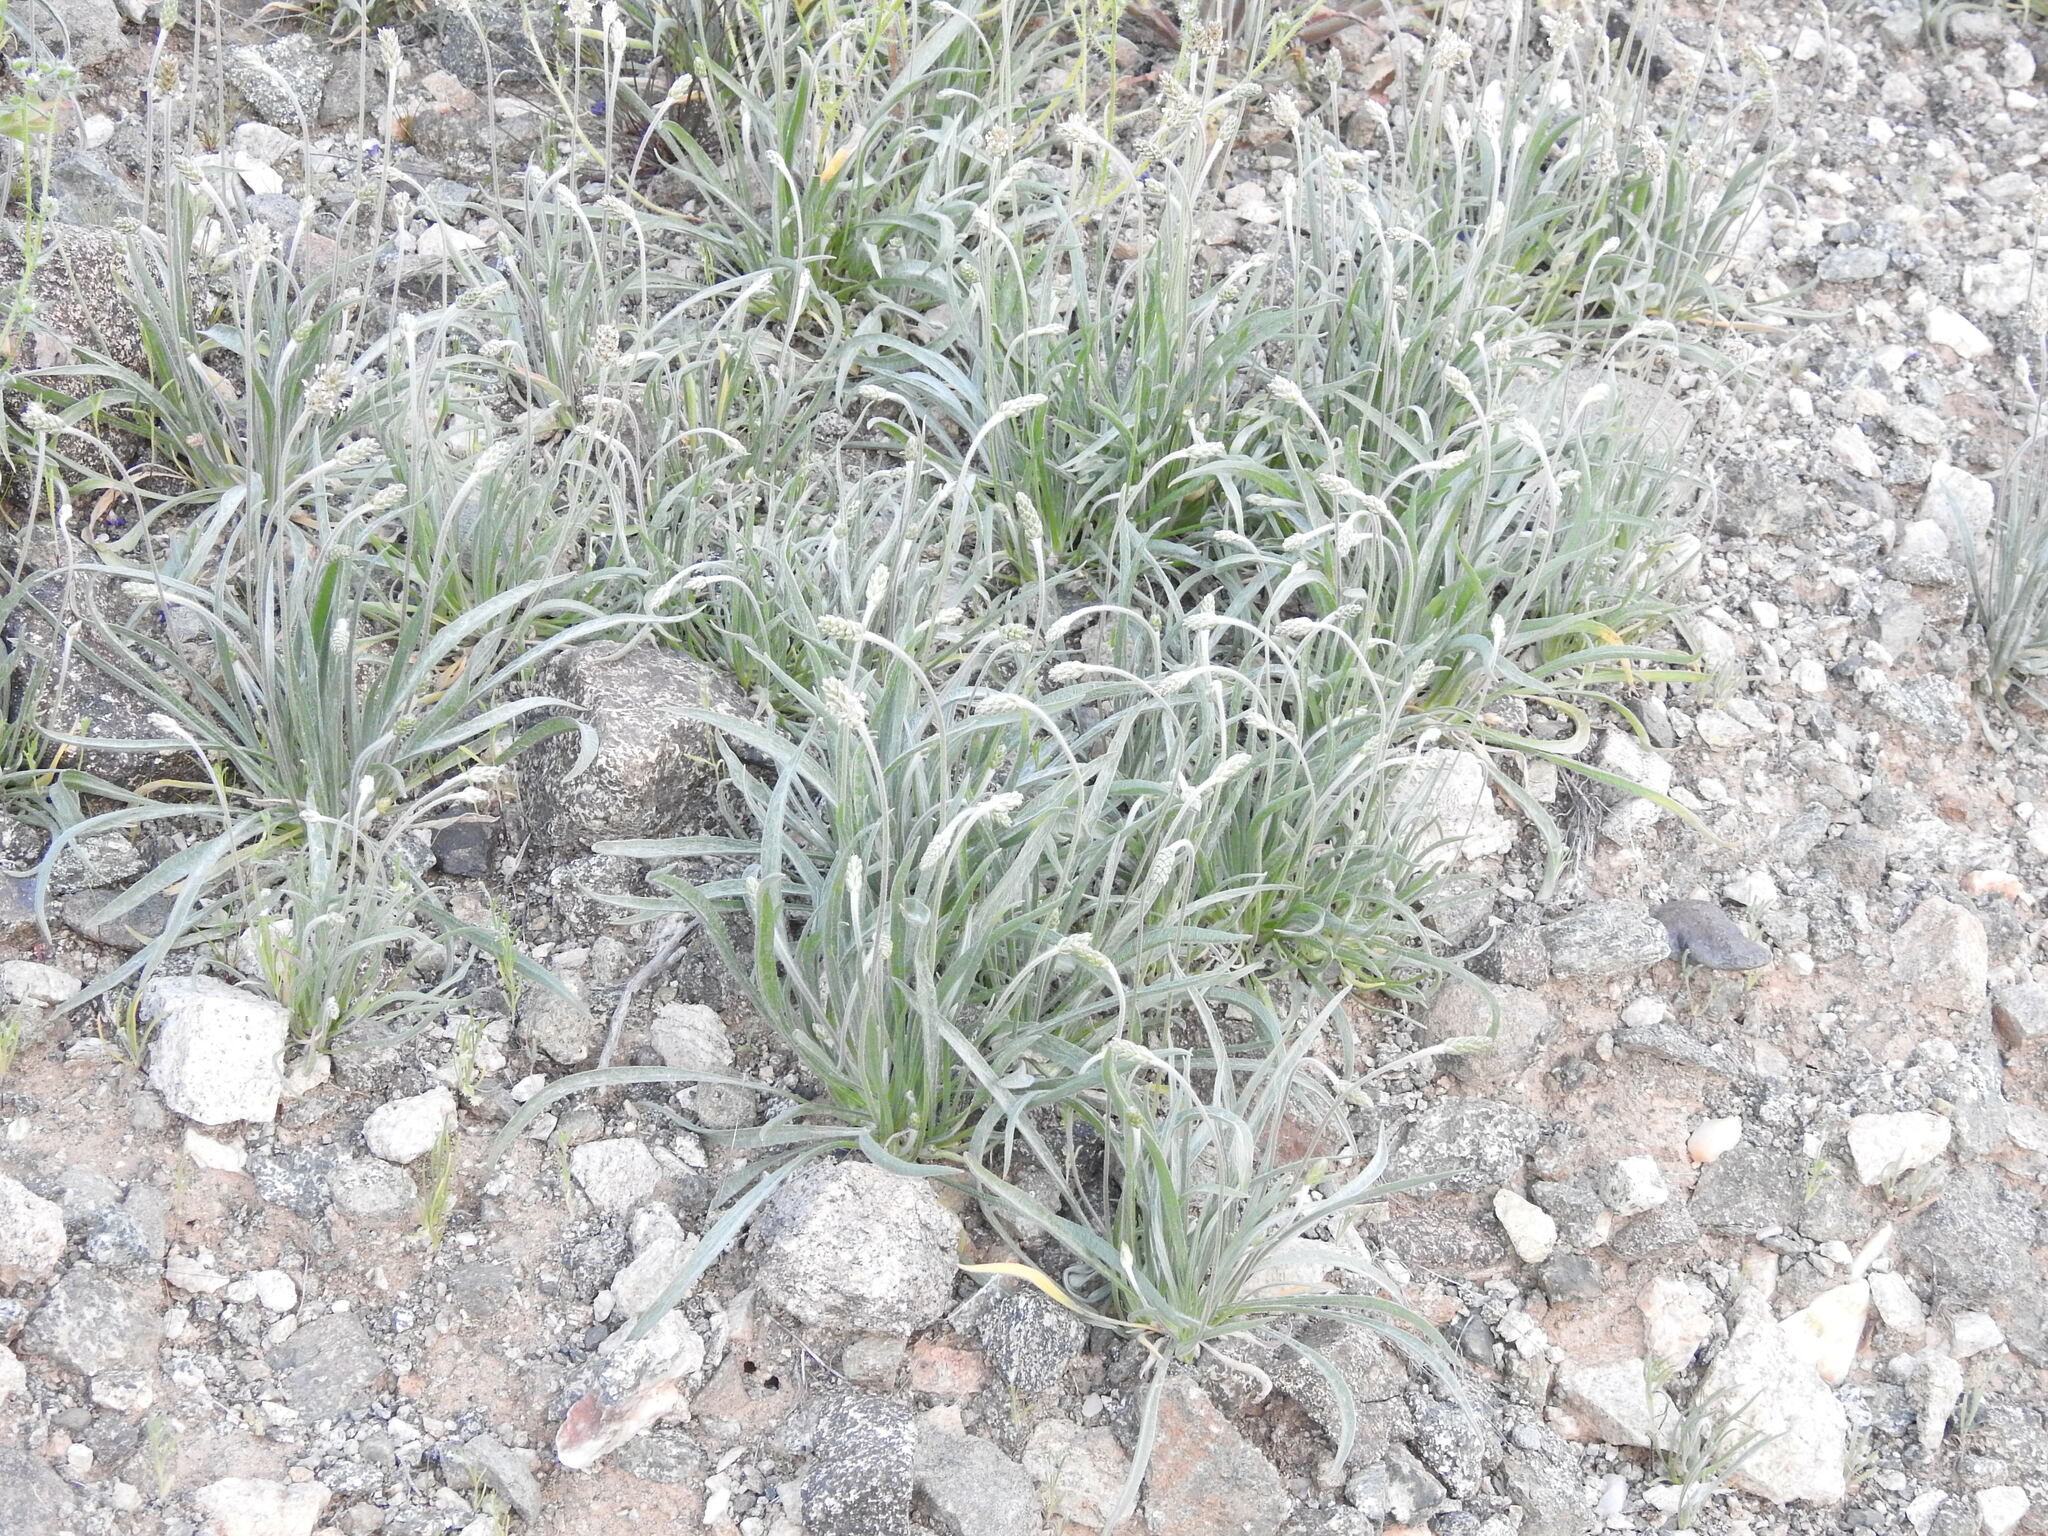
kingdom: Plantae
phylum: Tracheophyta
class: Magnoliopsida
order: Lamiales
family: Plantaginaceae
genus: Plantago
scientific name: Plantago ovata
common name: Blond plantain
